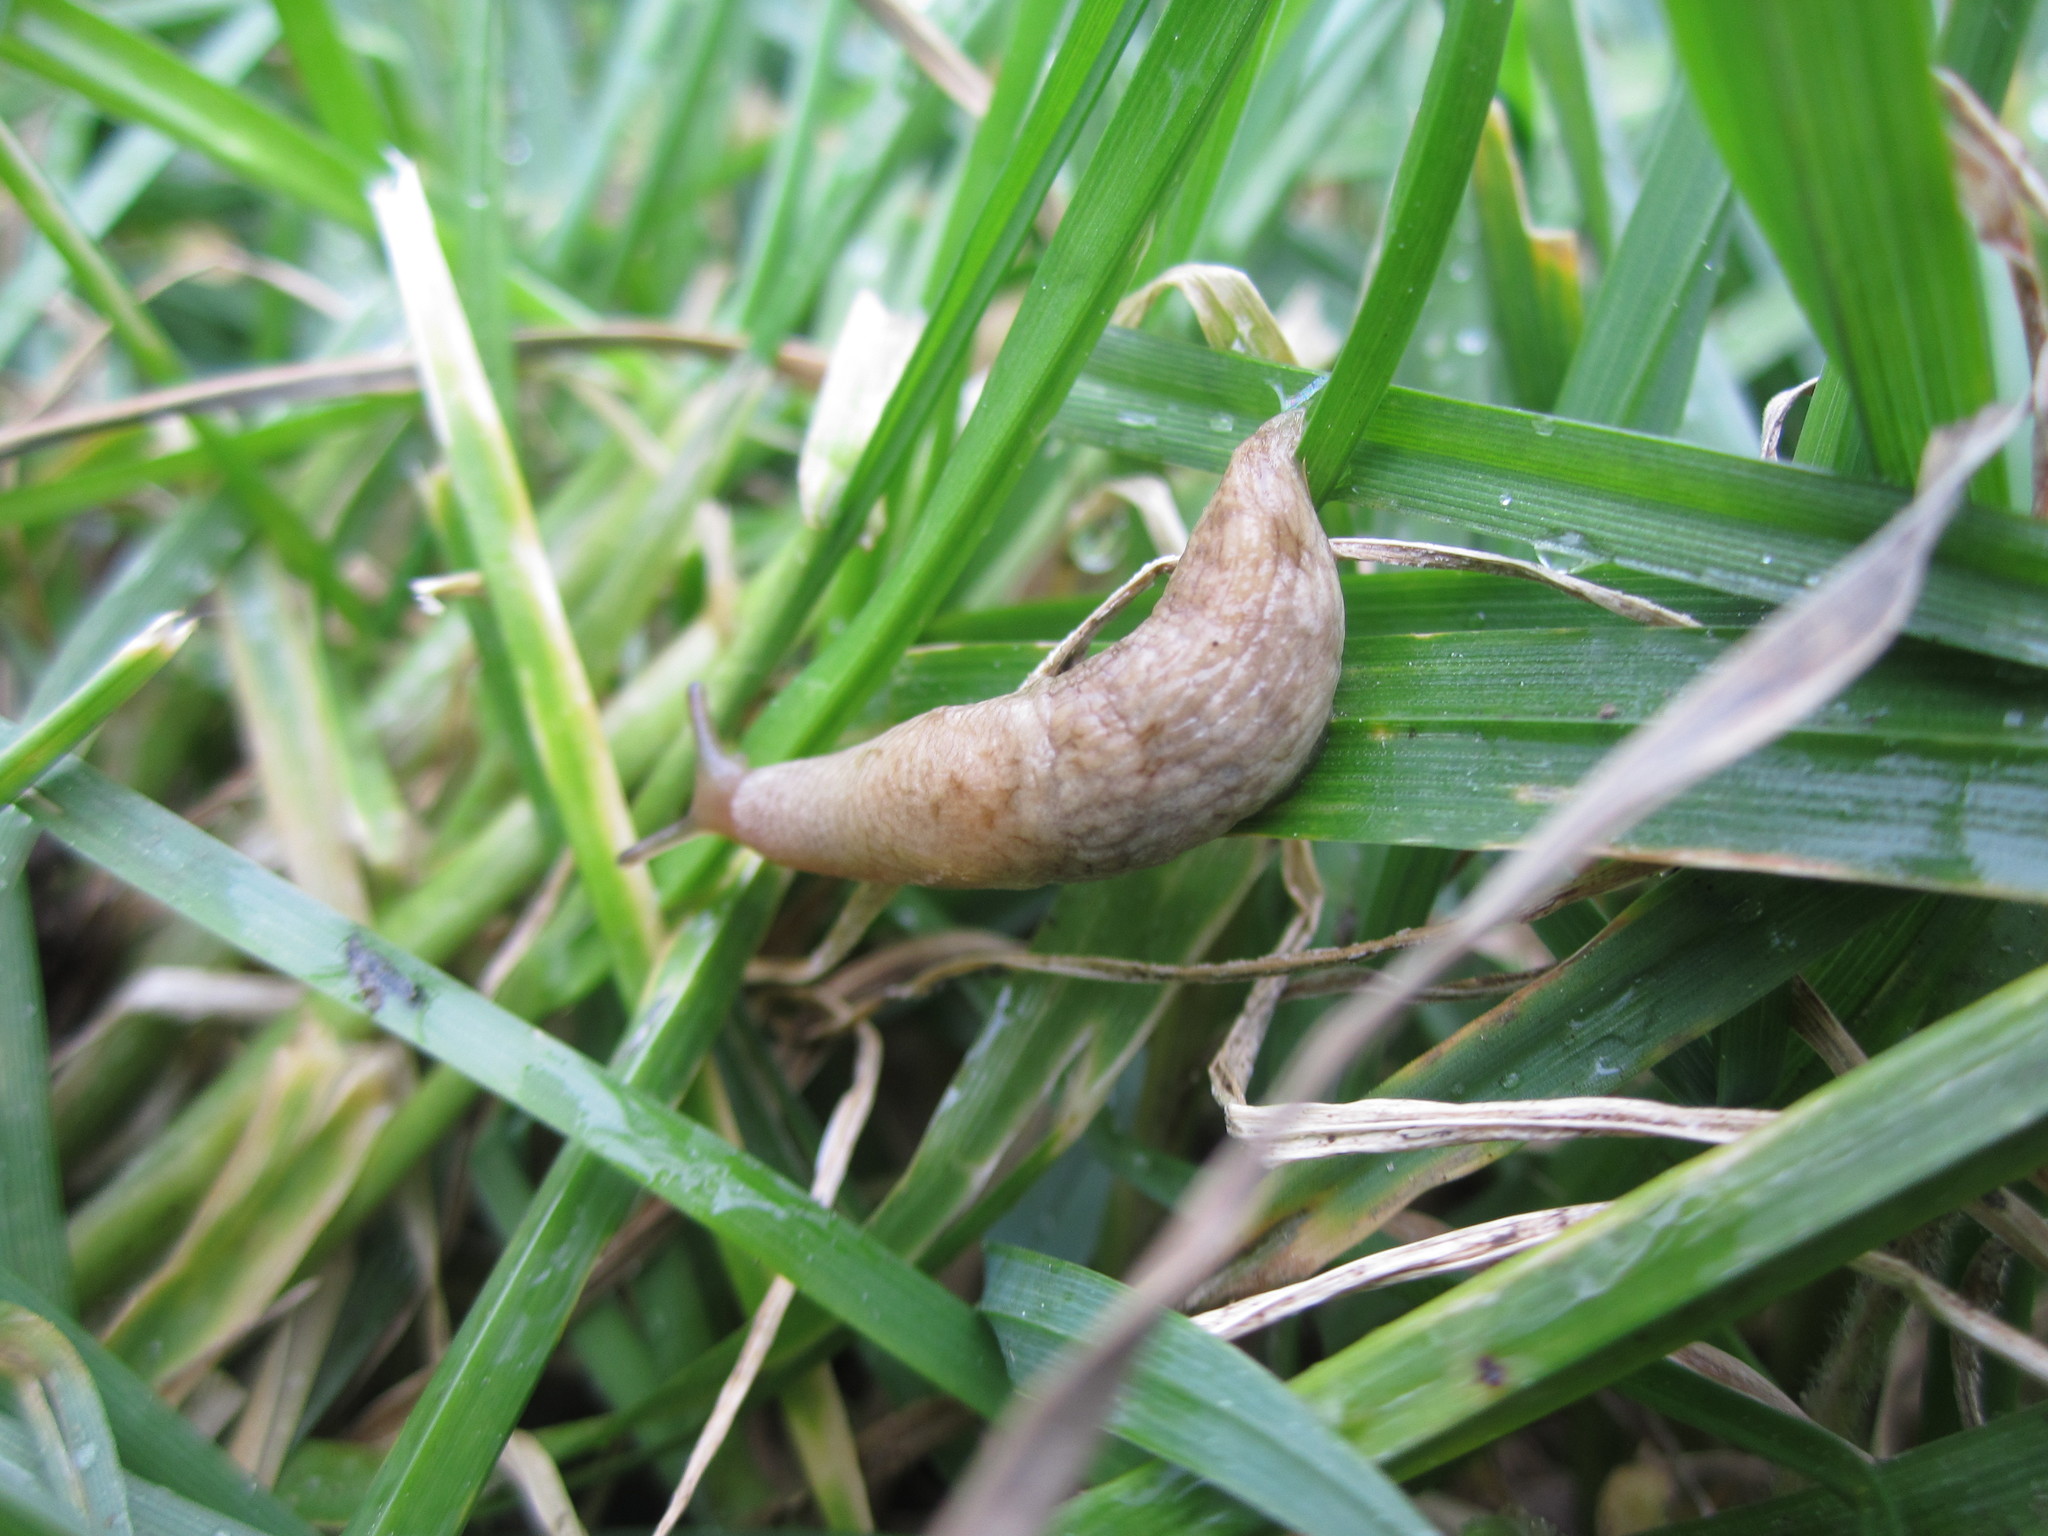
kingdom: Animalia
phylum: Mollusca
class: Gastropoda
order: Stylommatophora
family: Agriolimacidae
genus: Deroceras
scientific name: Deroceras reticulatum
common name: Gray field slug
